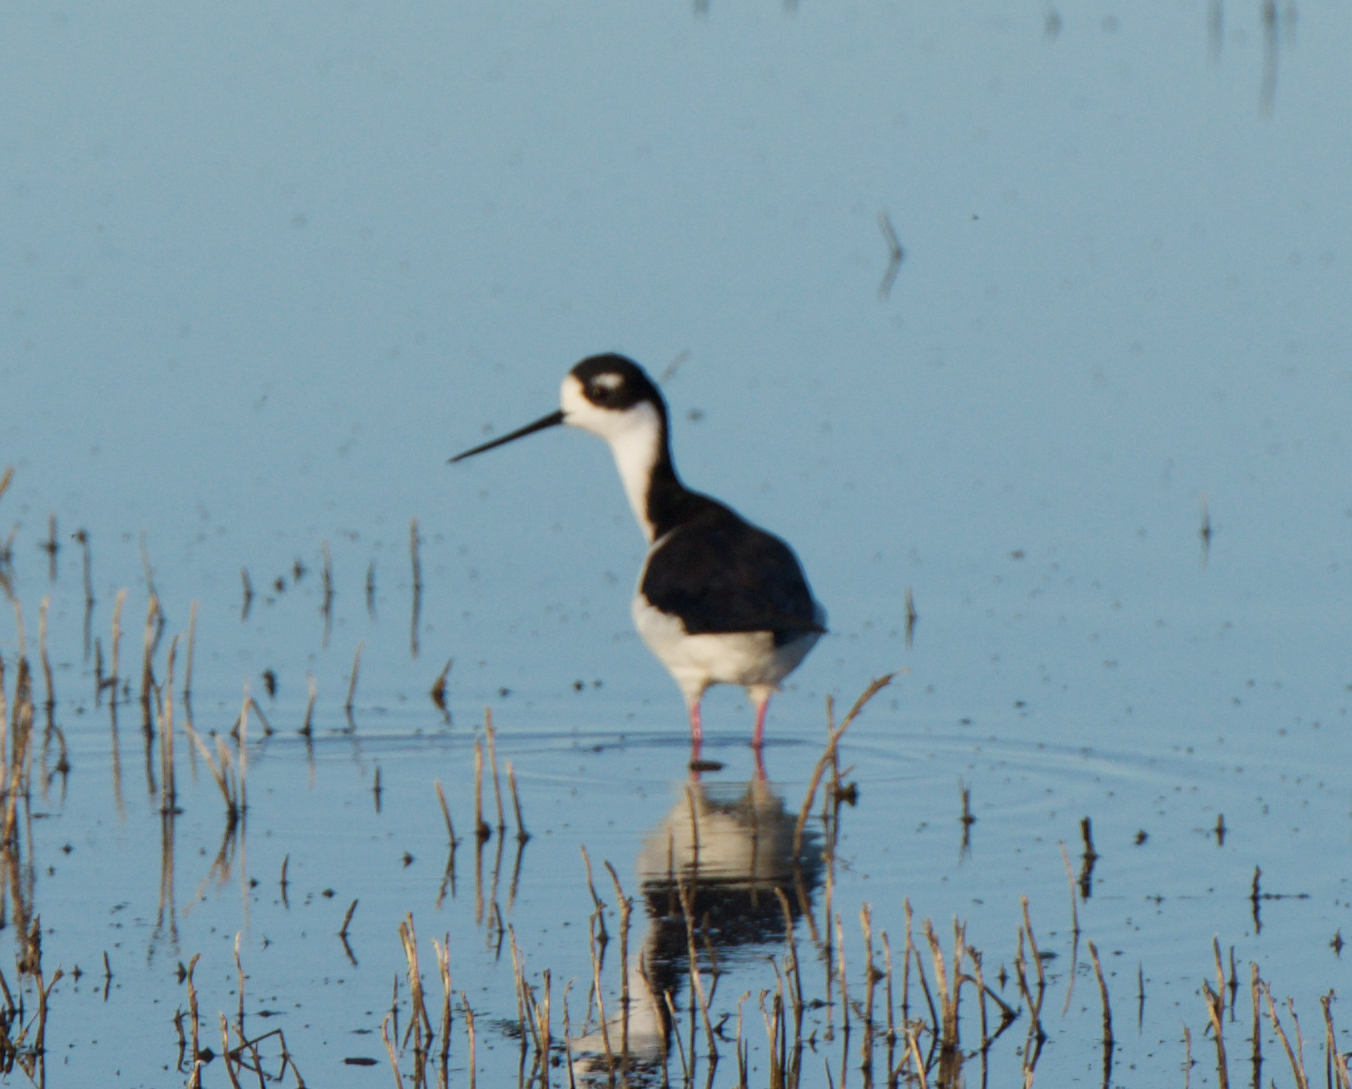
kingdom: Animalia
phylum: Chordata
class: Aves
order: Charadriiformes
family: Recurvirostridae
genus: Himantopus
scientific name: Himantopus mexicanus
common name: Black-necked stilt
